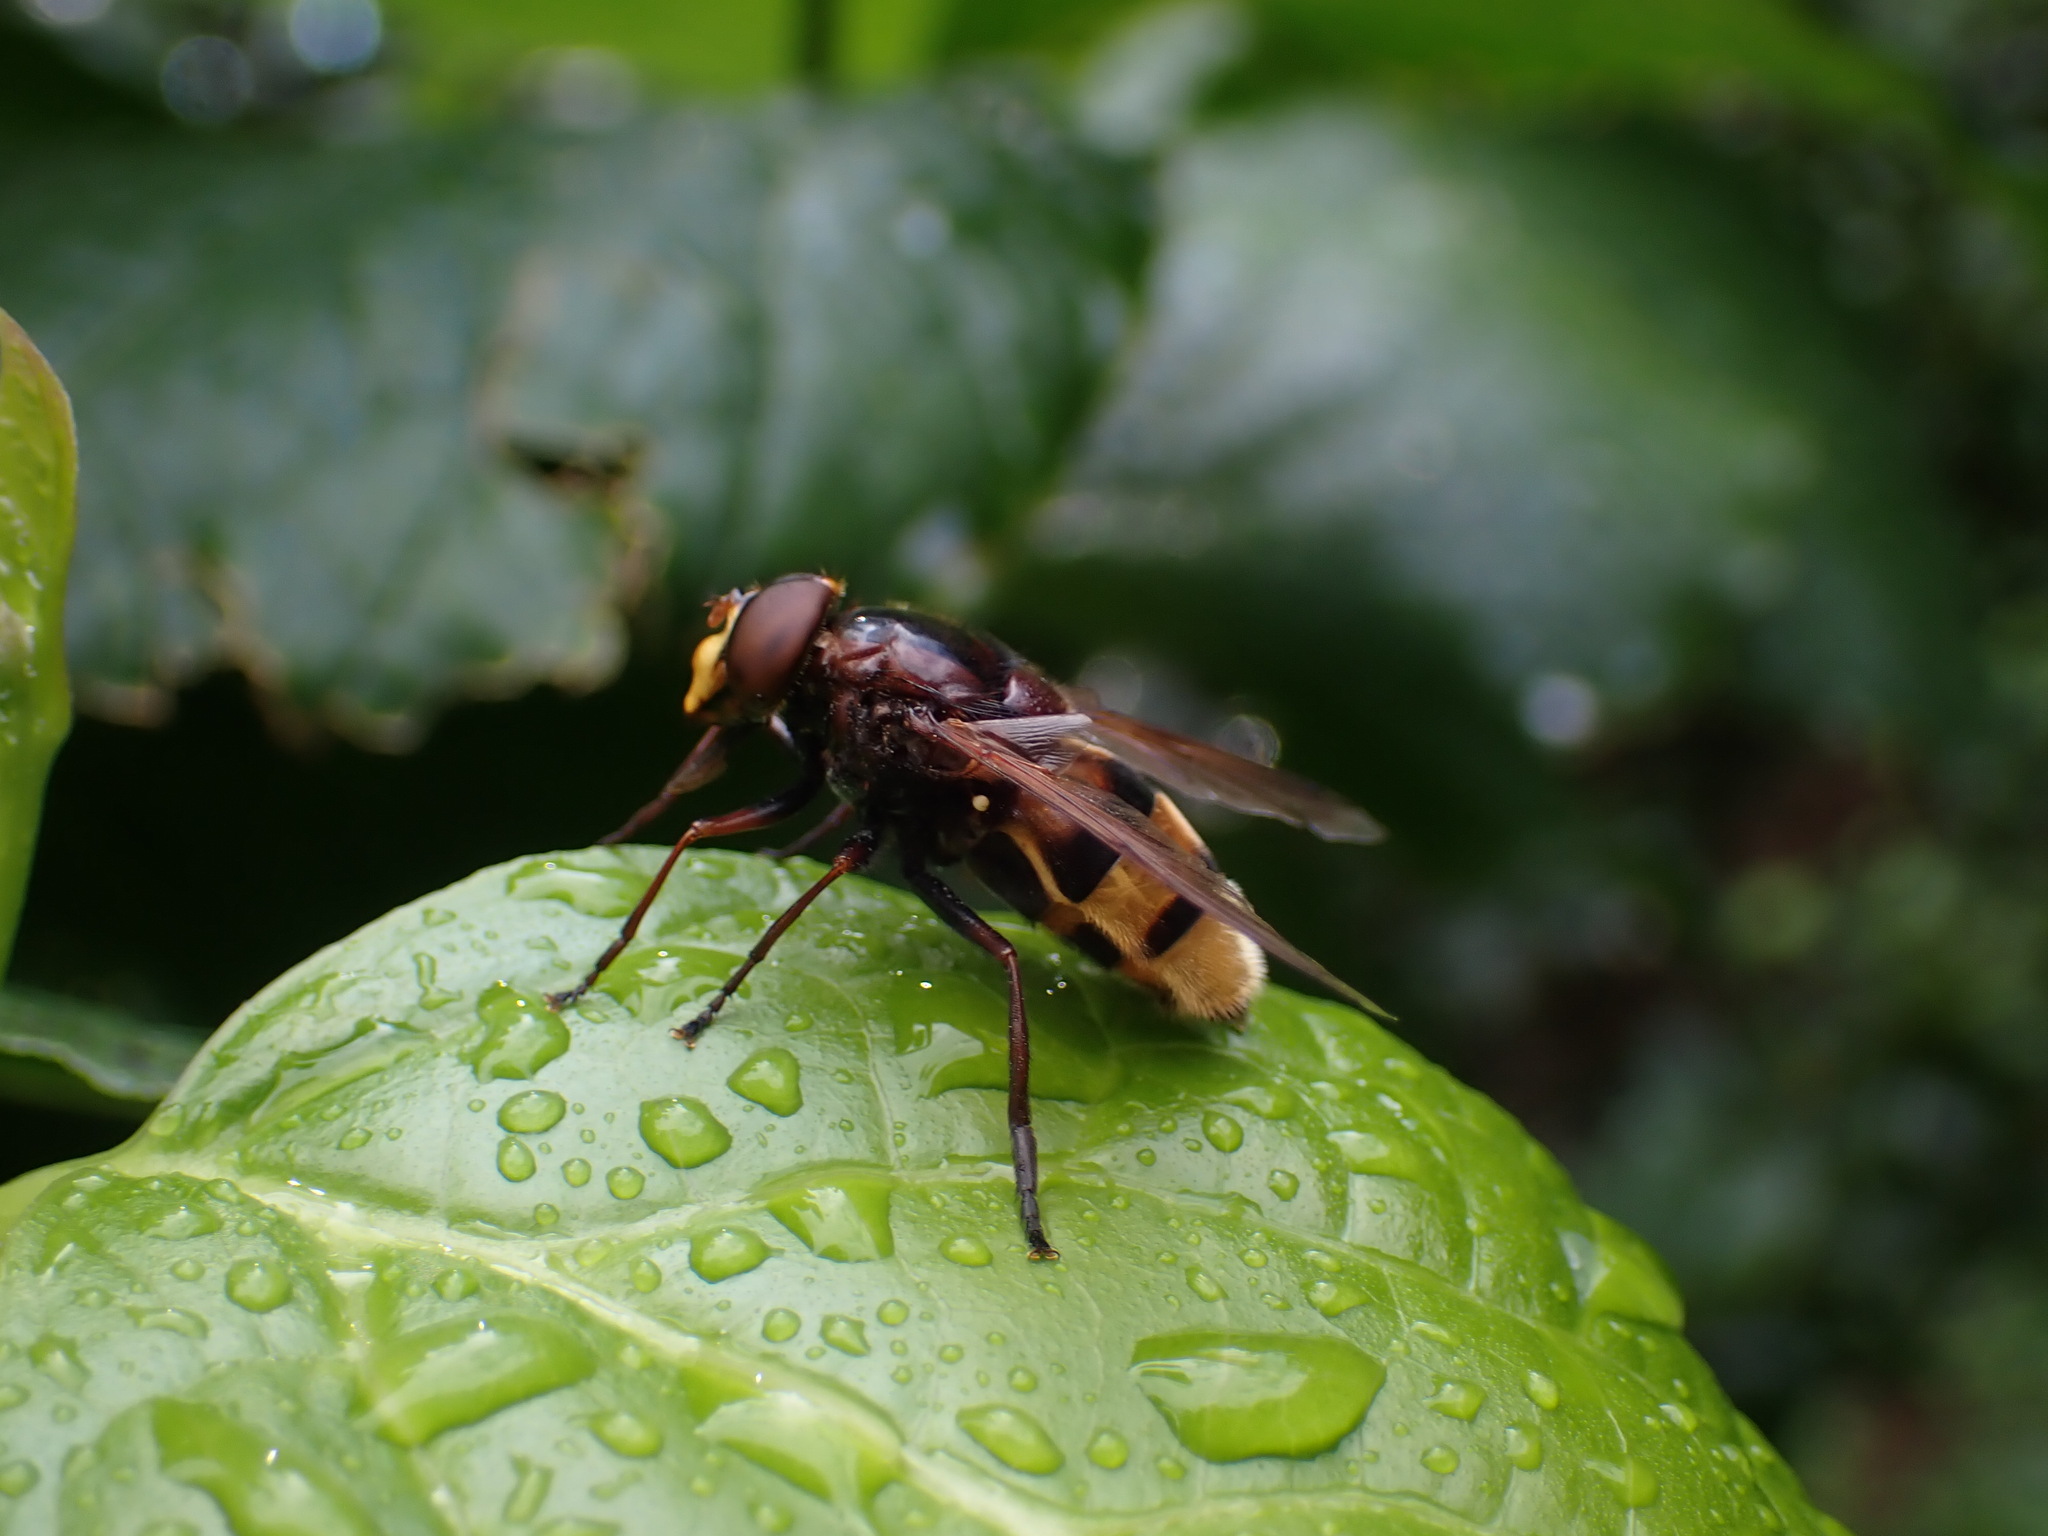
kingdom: Animalia
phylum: Arthropoda
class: Insecta
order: Diptera
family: Syrphidae
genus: Volucella
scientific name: Volucella zonaria
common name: Hornet hoverfly
